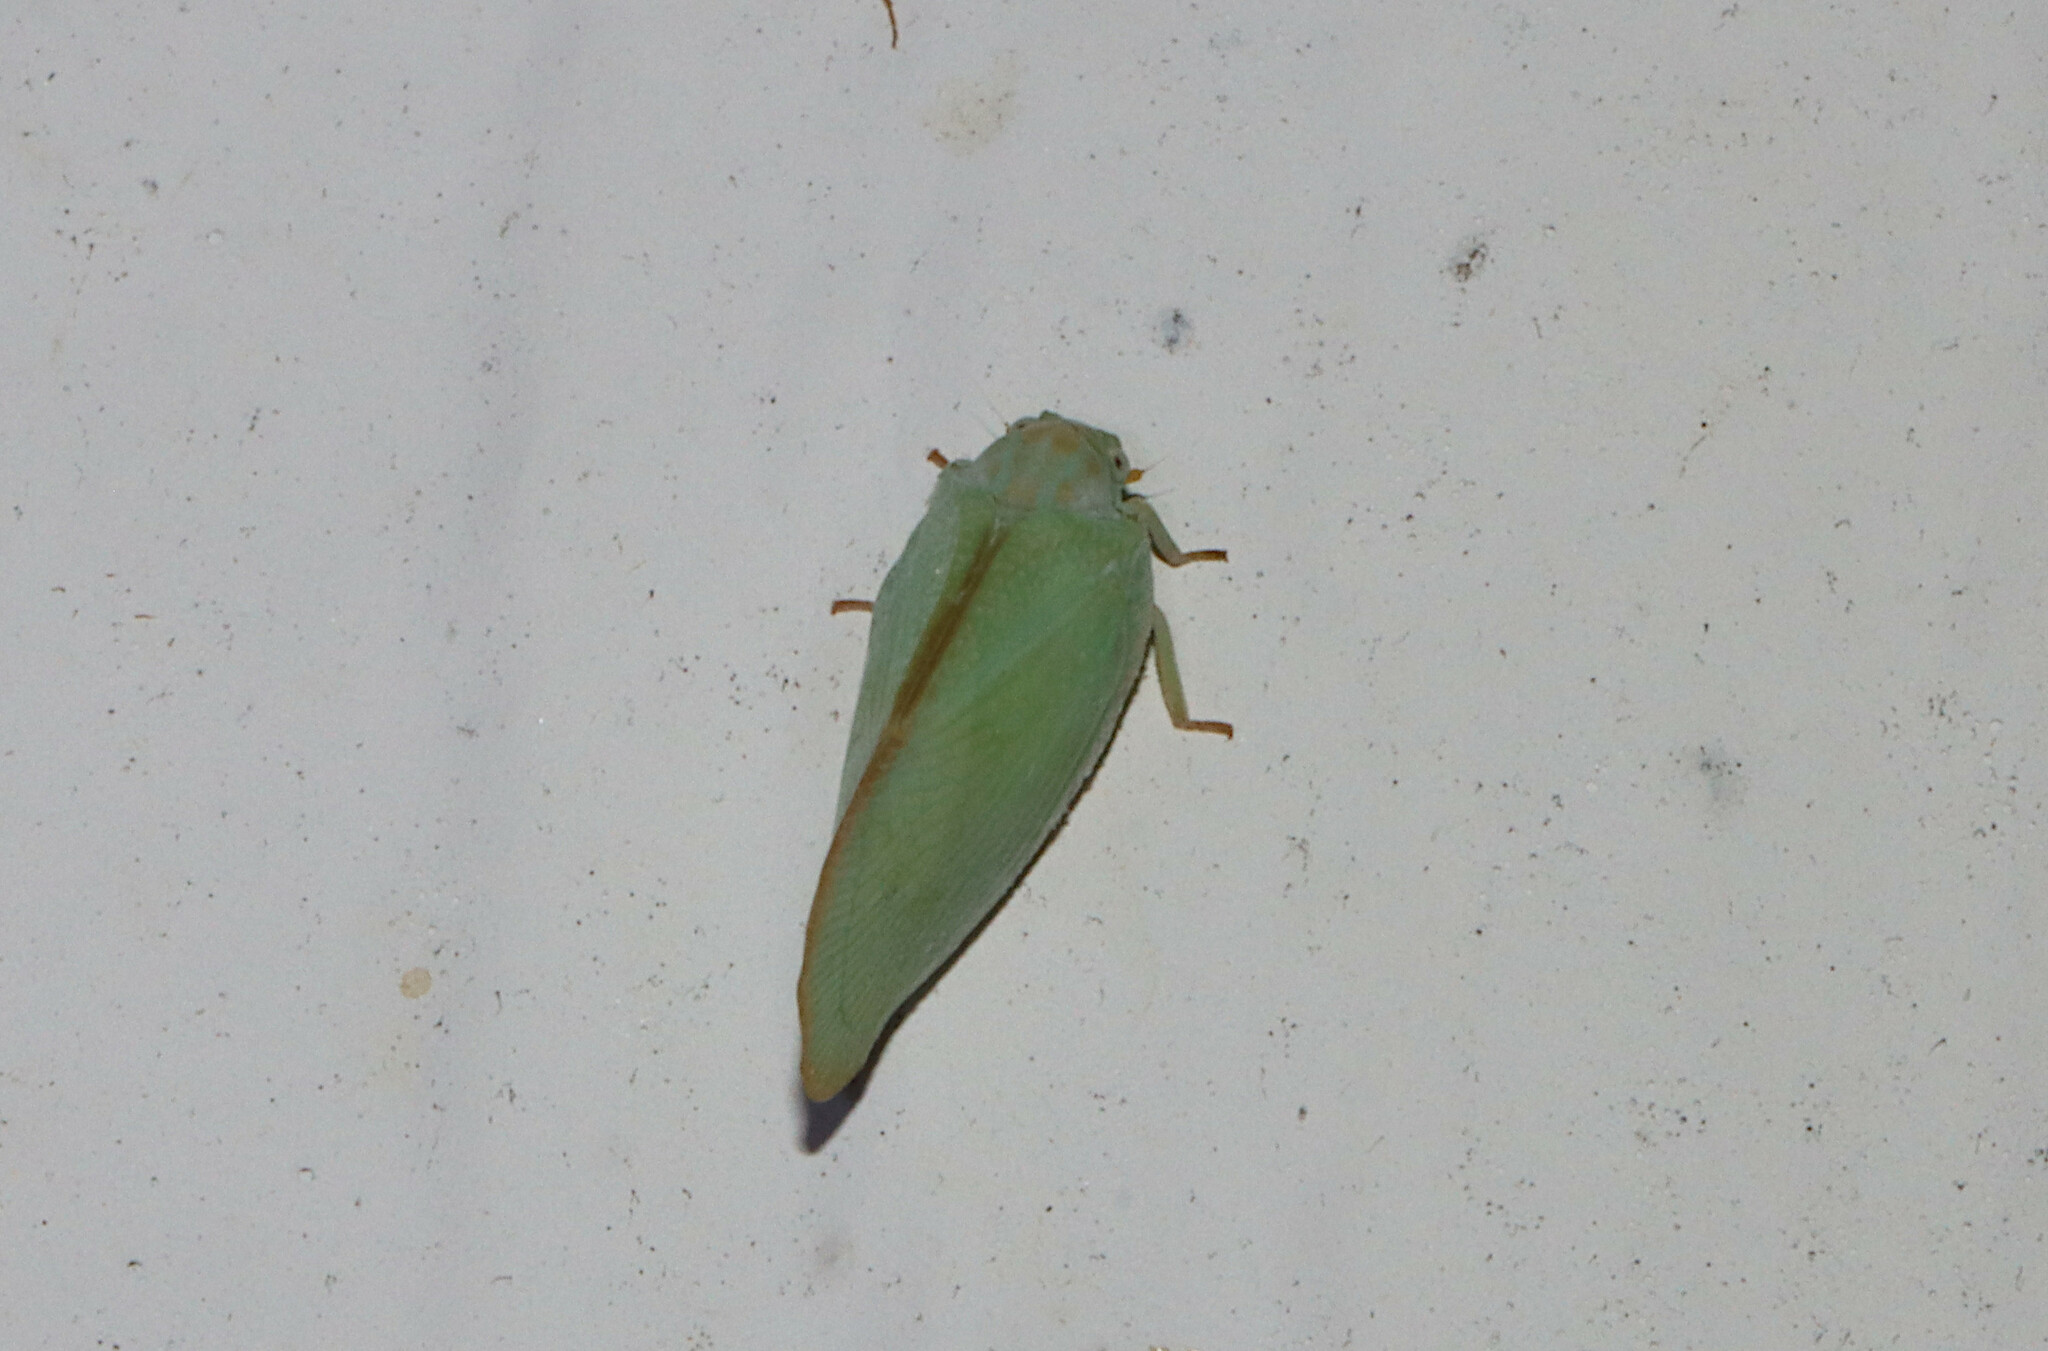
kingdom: Animalia
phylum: Arthropoda
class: Insecta
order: Hemiptera
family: Flatidae
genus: Ormenoides
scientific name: Ormenoides venusta
